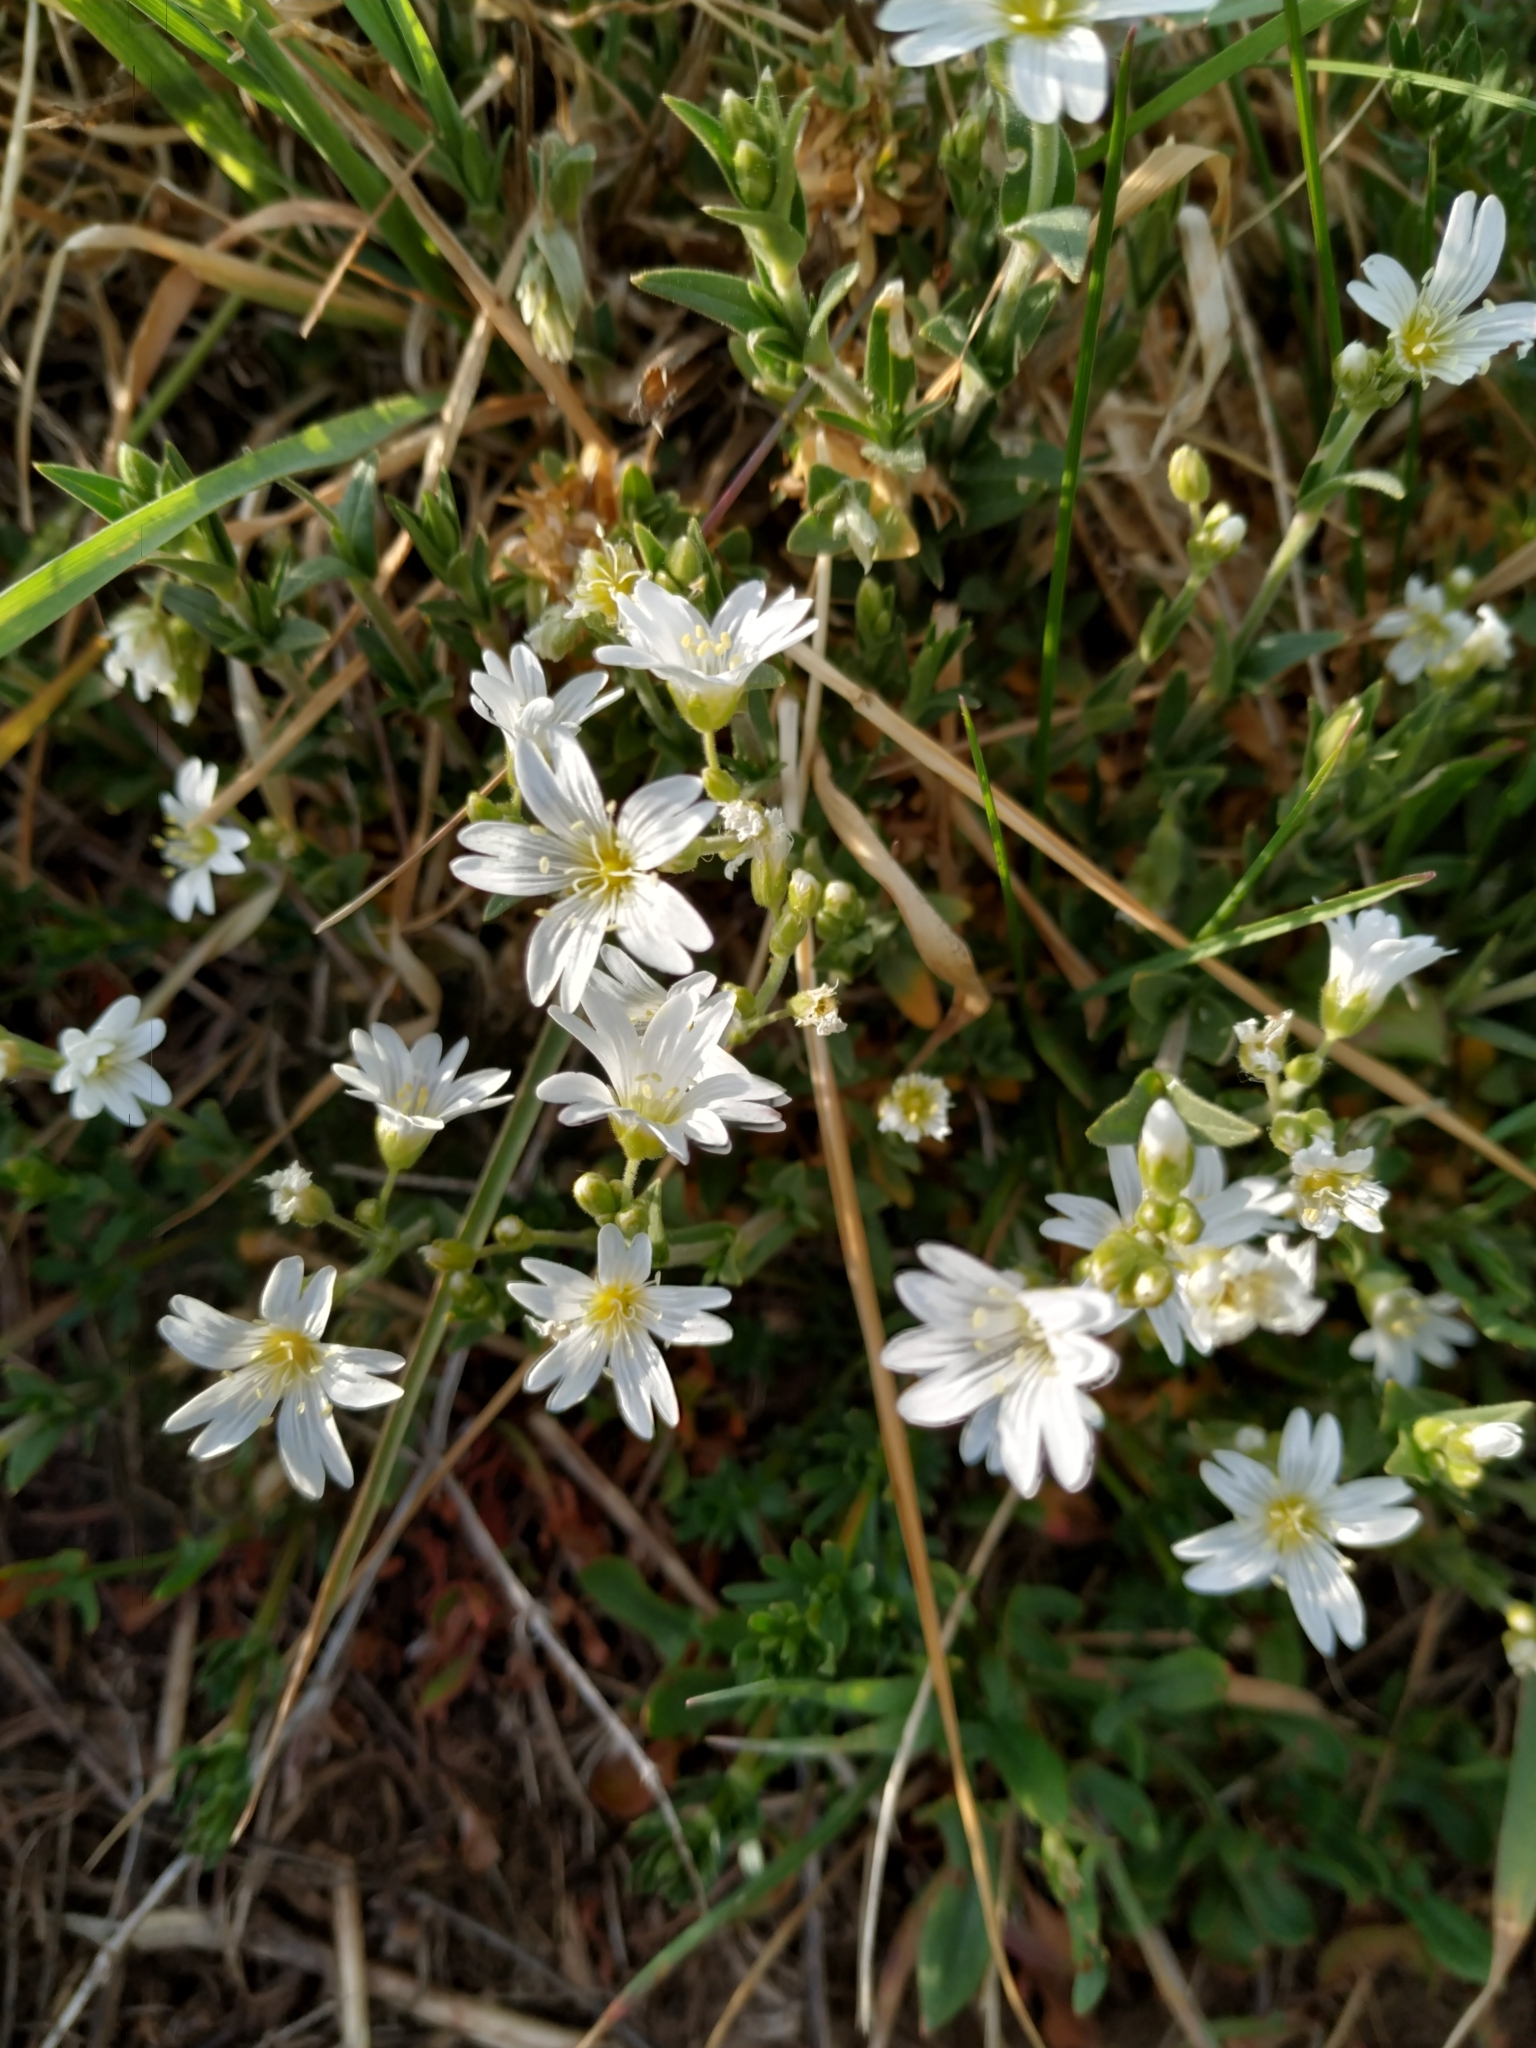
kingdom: Plantae
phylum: Tracheophyta
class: Magnoliopsida
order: Caryophyllales
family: Caryophyllaceae
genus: Cerastium
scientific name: Cerastium arvense
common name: Field mouse-ear
